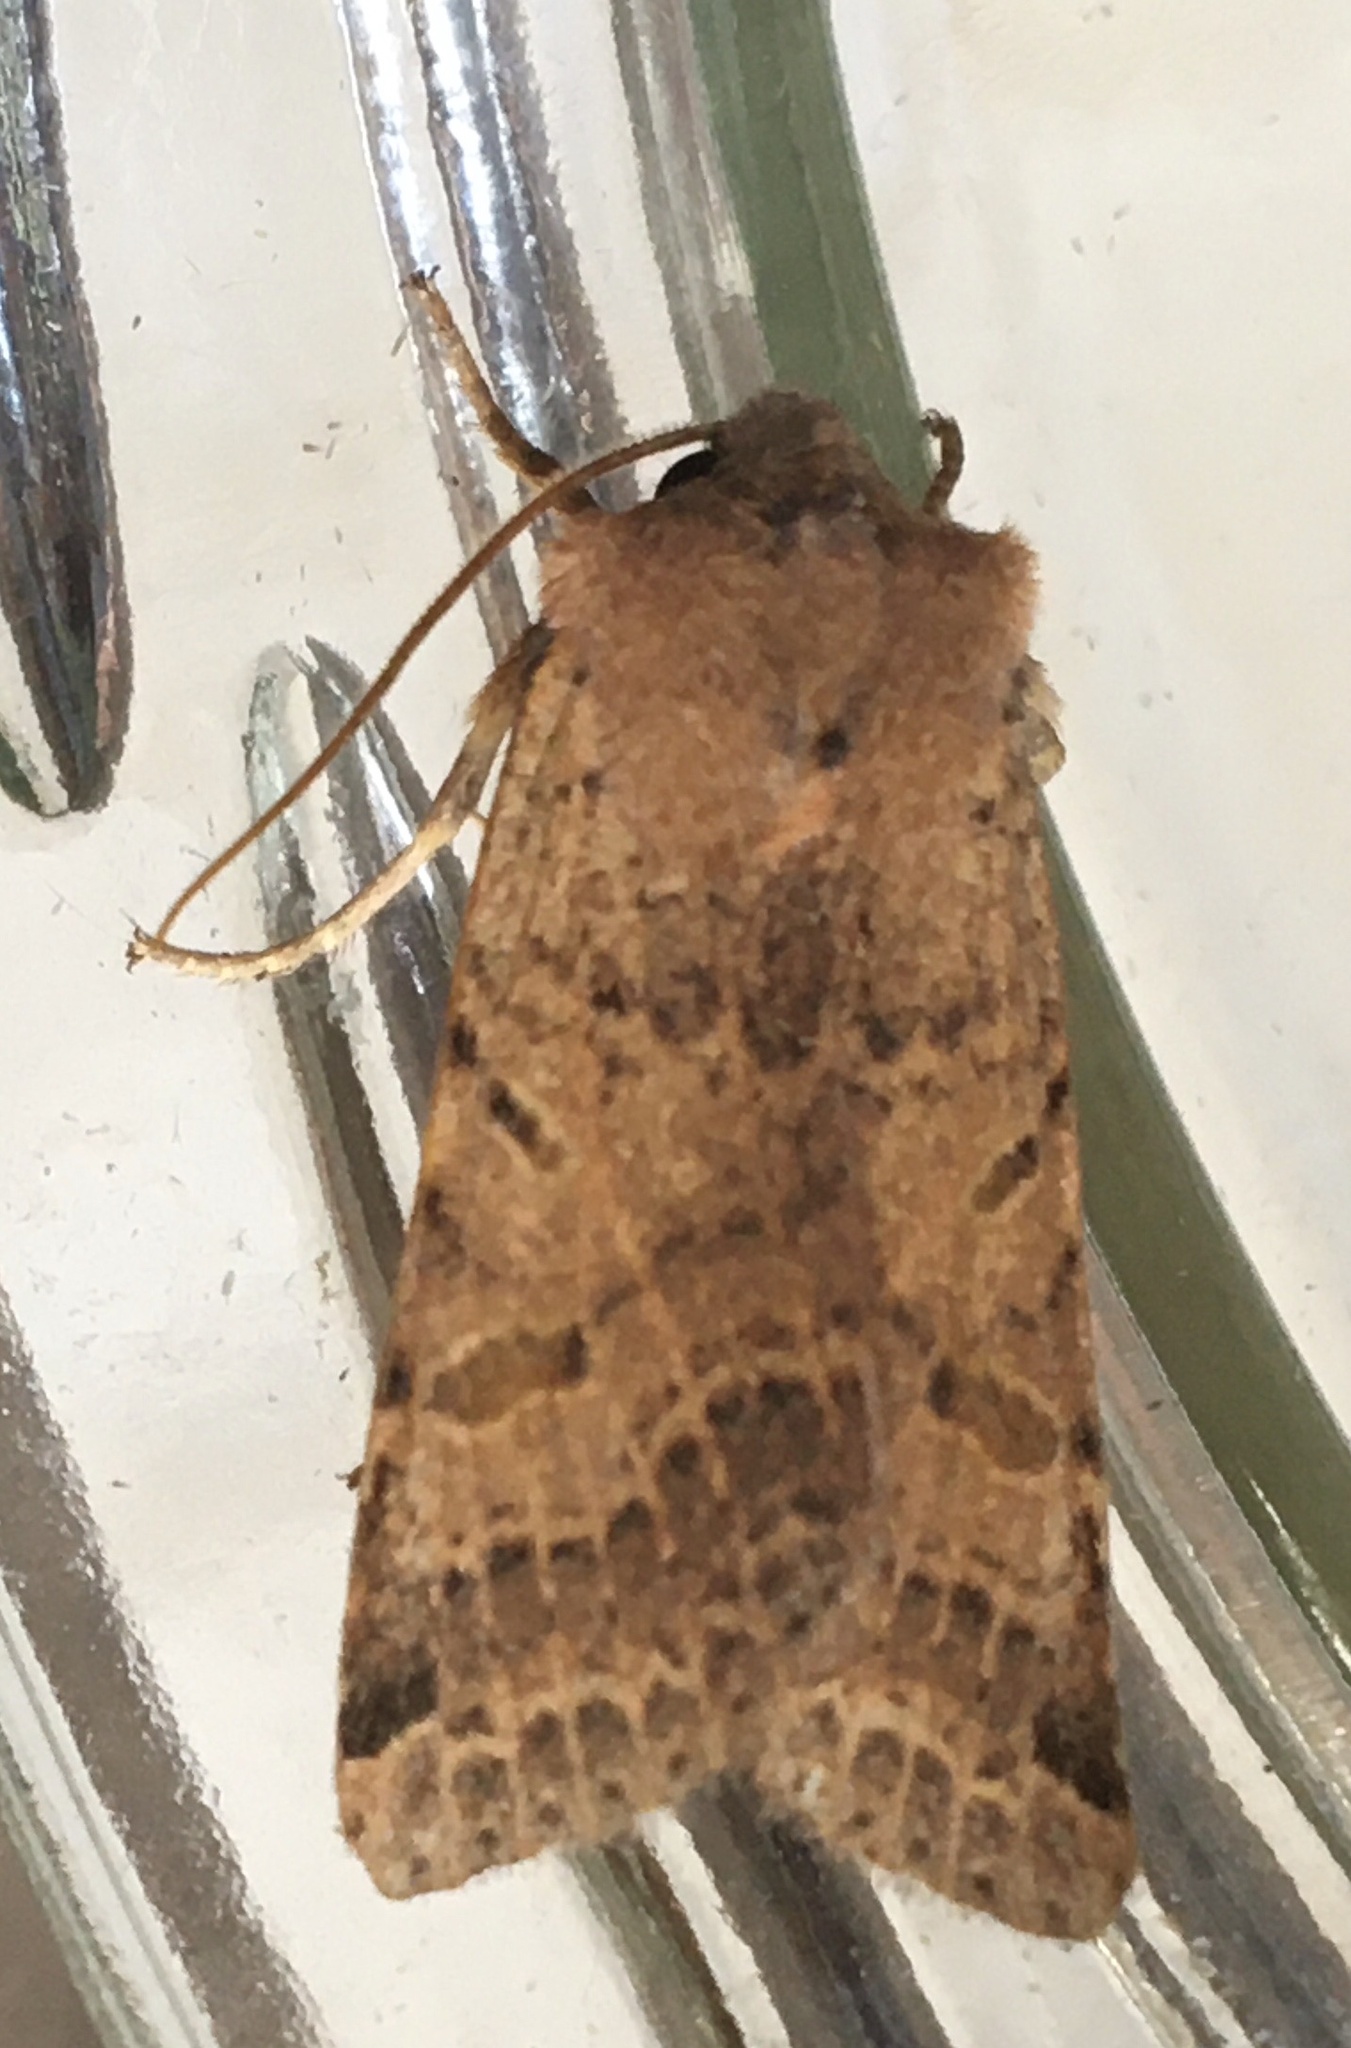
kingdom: Animalia
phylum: Arthropoda
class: Insecta
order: Lepidoptera
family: Noctuidae
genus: Agrochola
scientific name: Agrochola lychnidis
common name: Beaded chestnut
